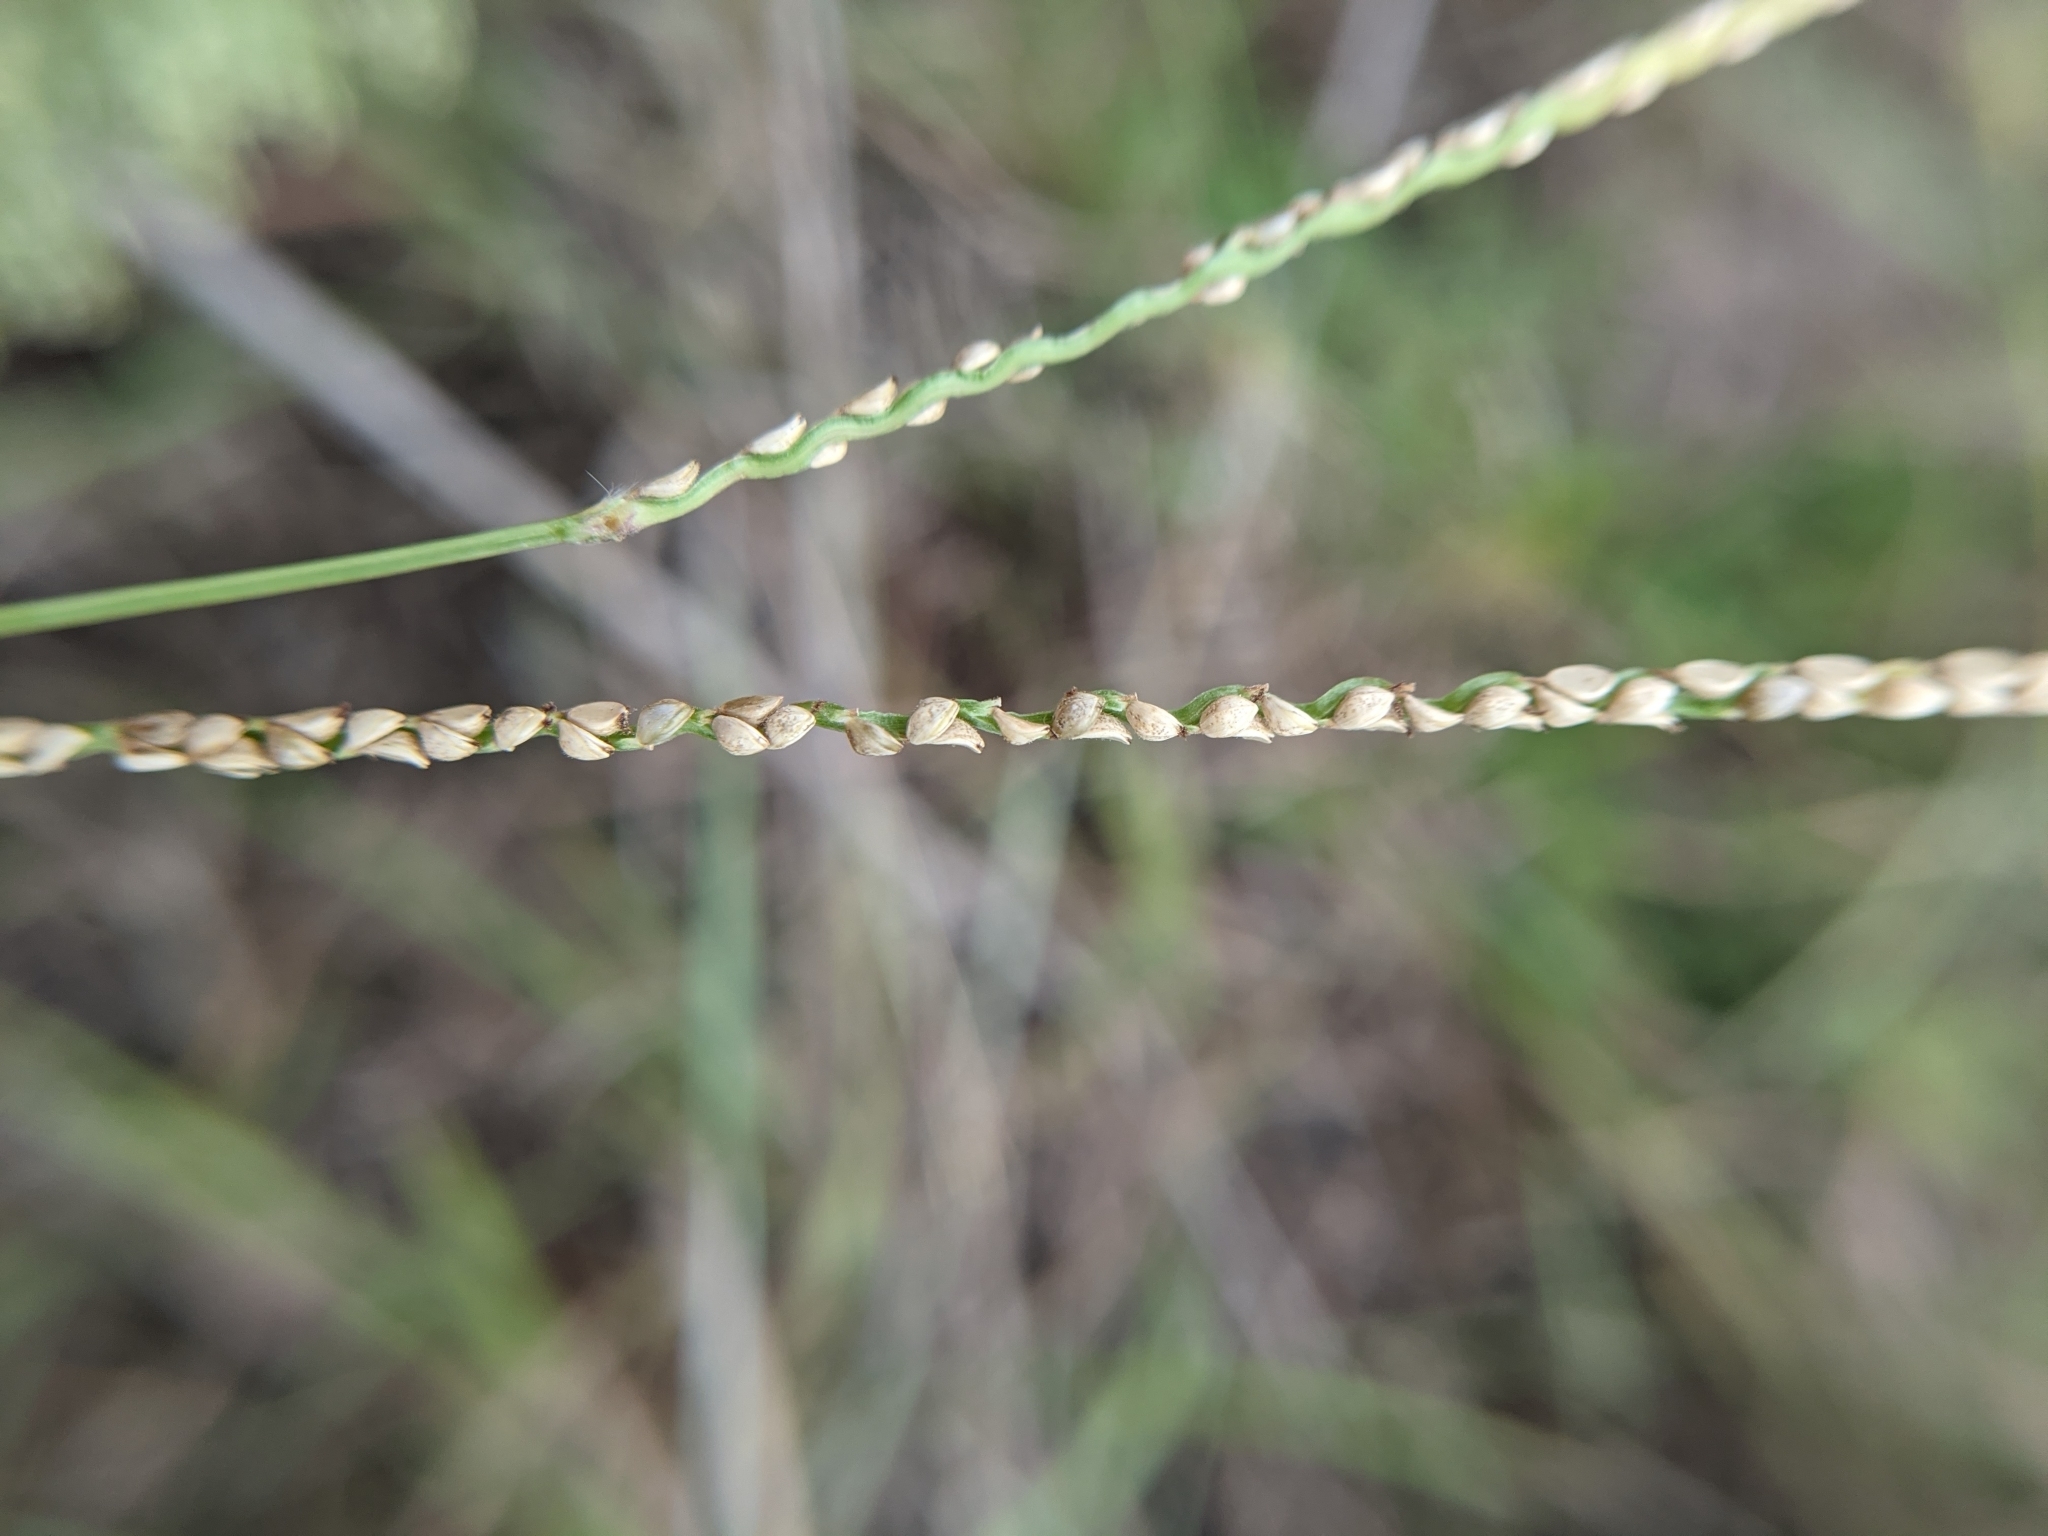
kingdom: Plantae
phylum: Tracheophyta
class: Liliopsida
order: Poales
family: Poaceae
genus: Paspalum
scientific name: Paspalum setaceum
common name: Slender paspalum
